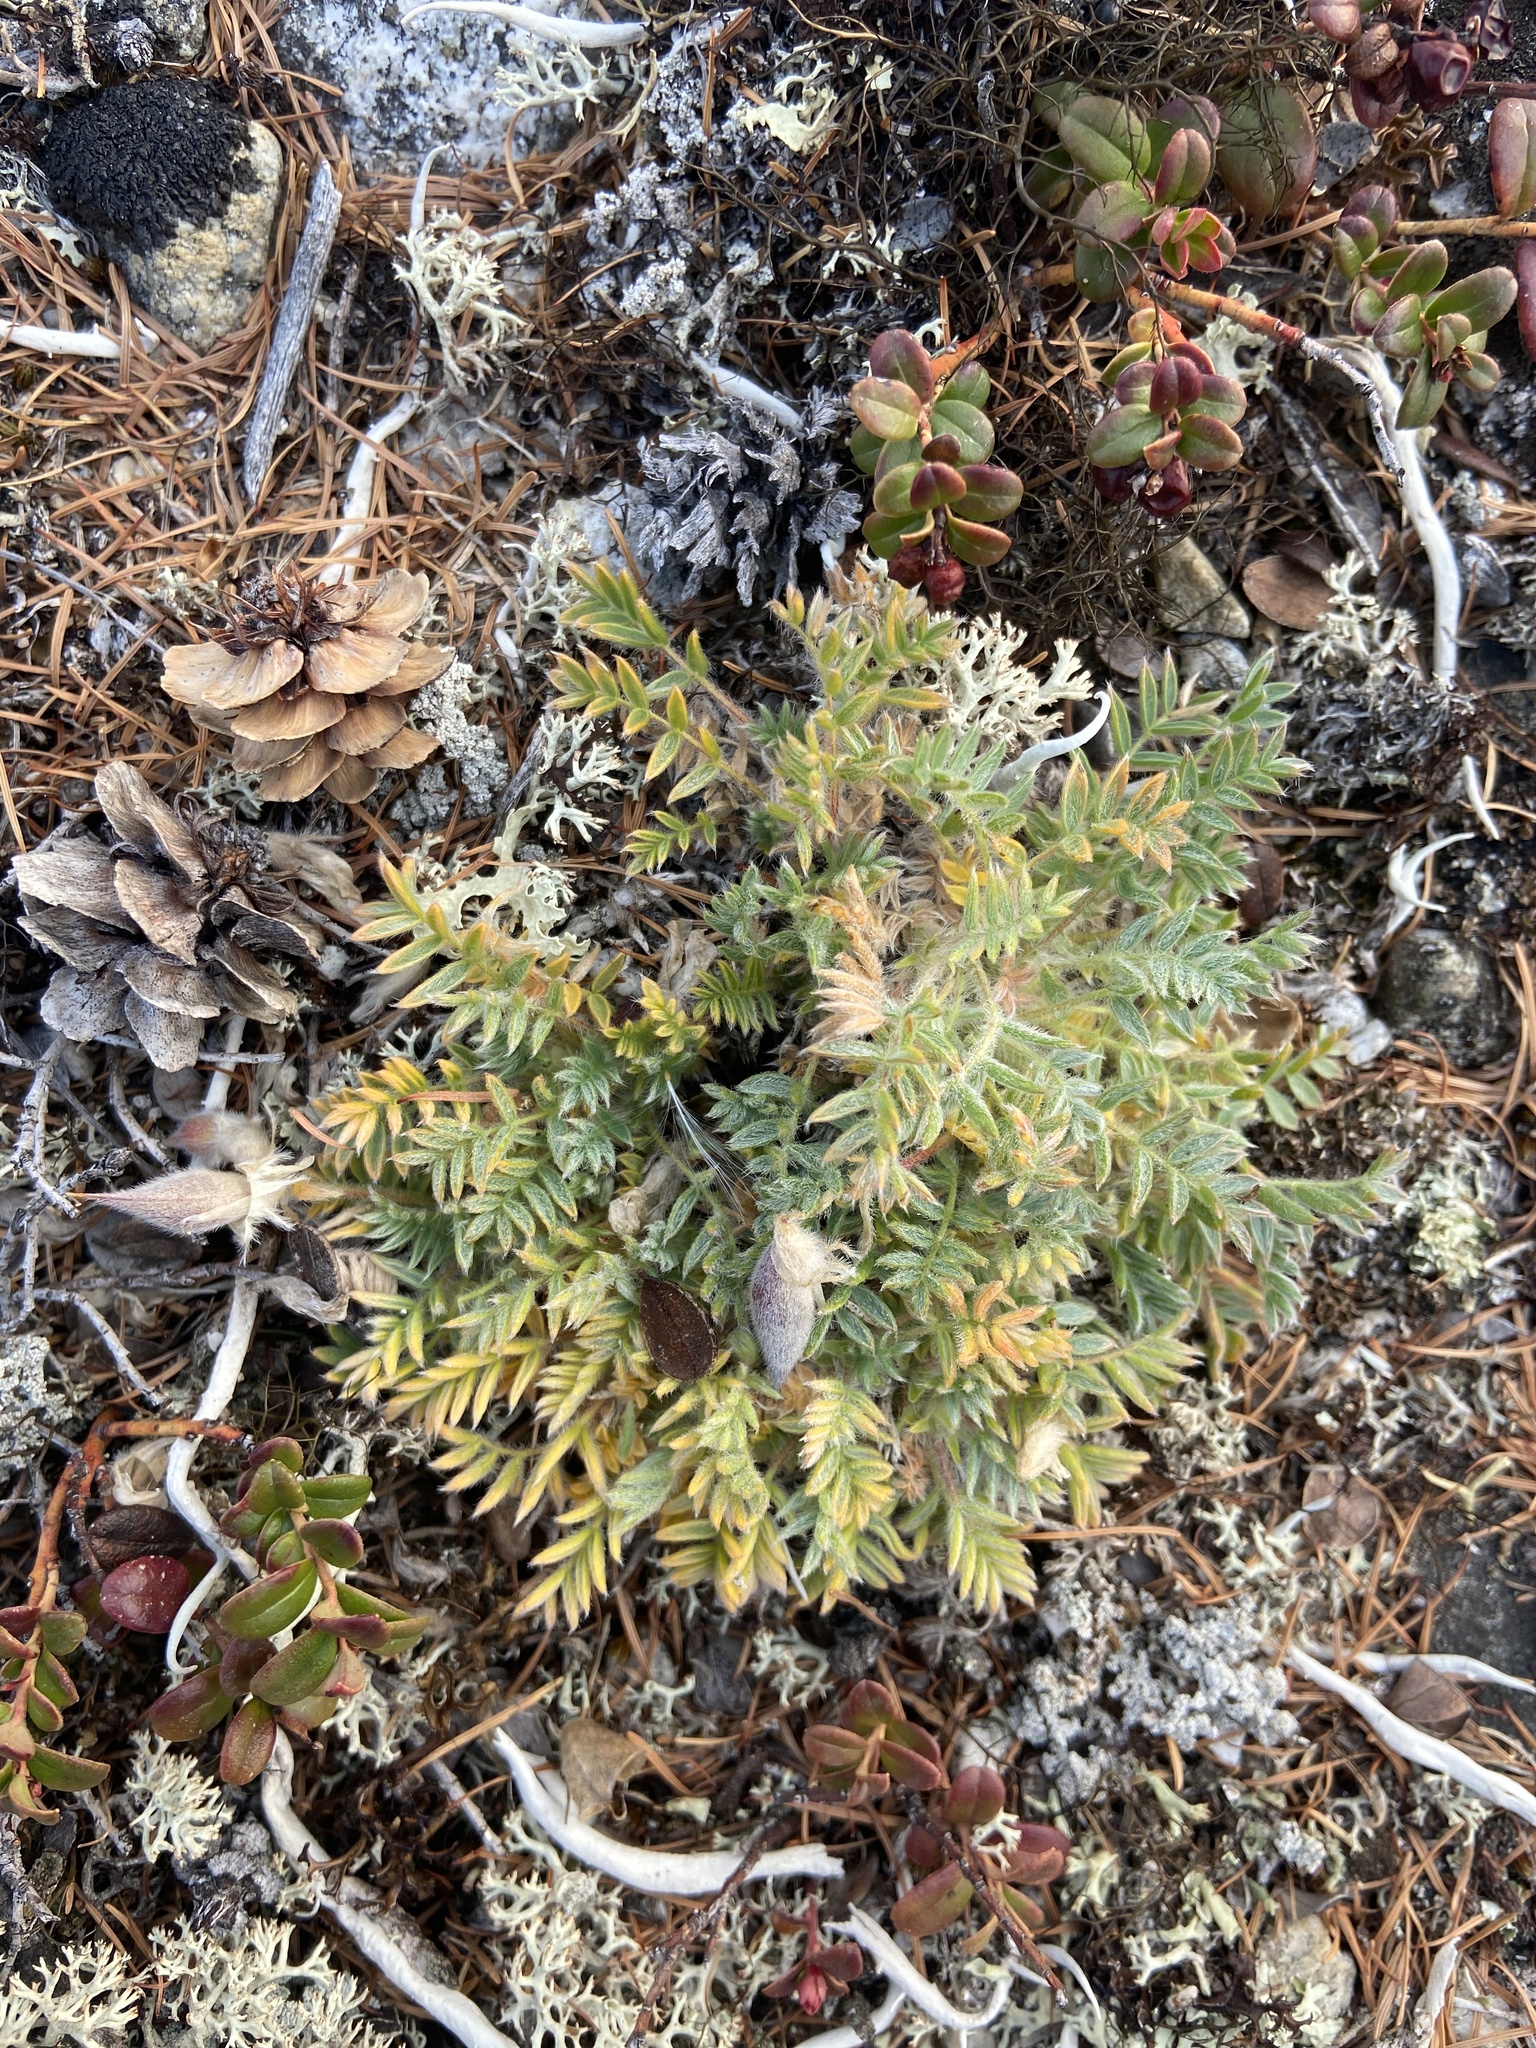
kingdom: Plantae
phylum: Tracheophyta
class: Magnoliopsida
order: Fabales
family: Fabaceae
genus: Oxytropis
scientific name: Oxytropis susumanica
